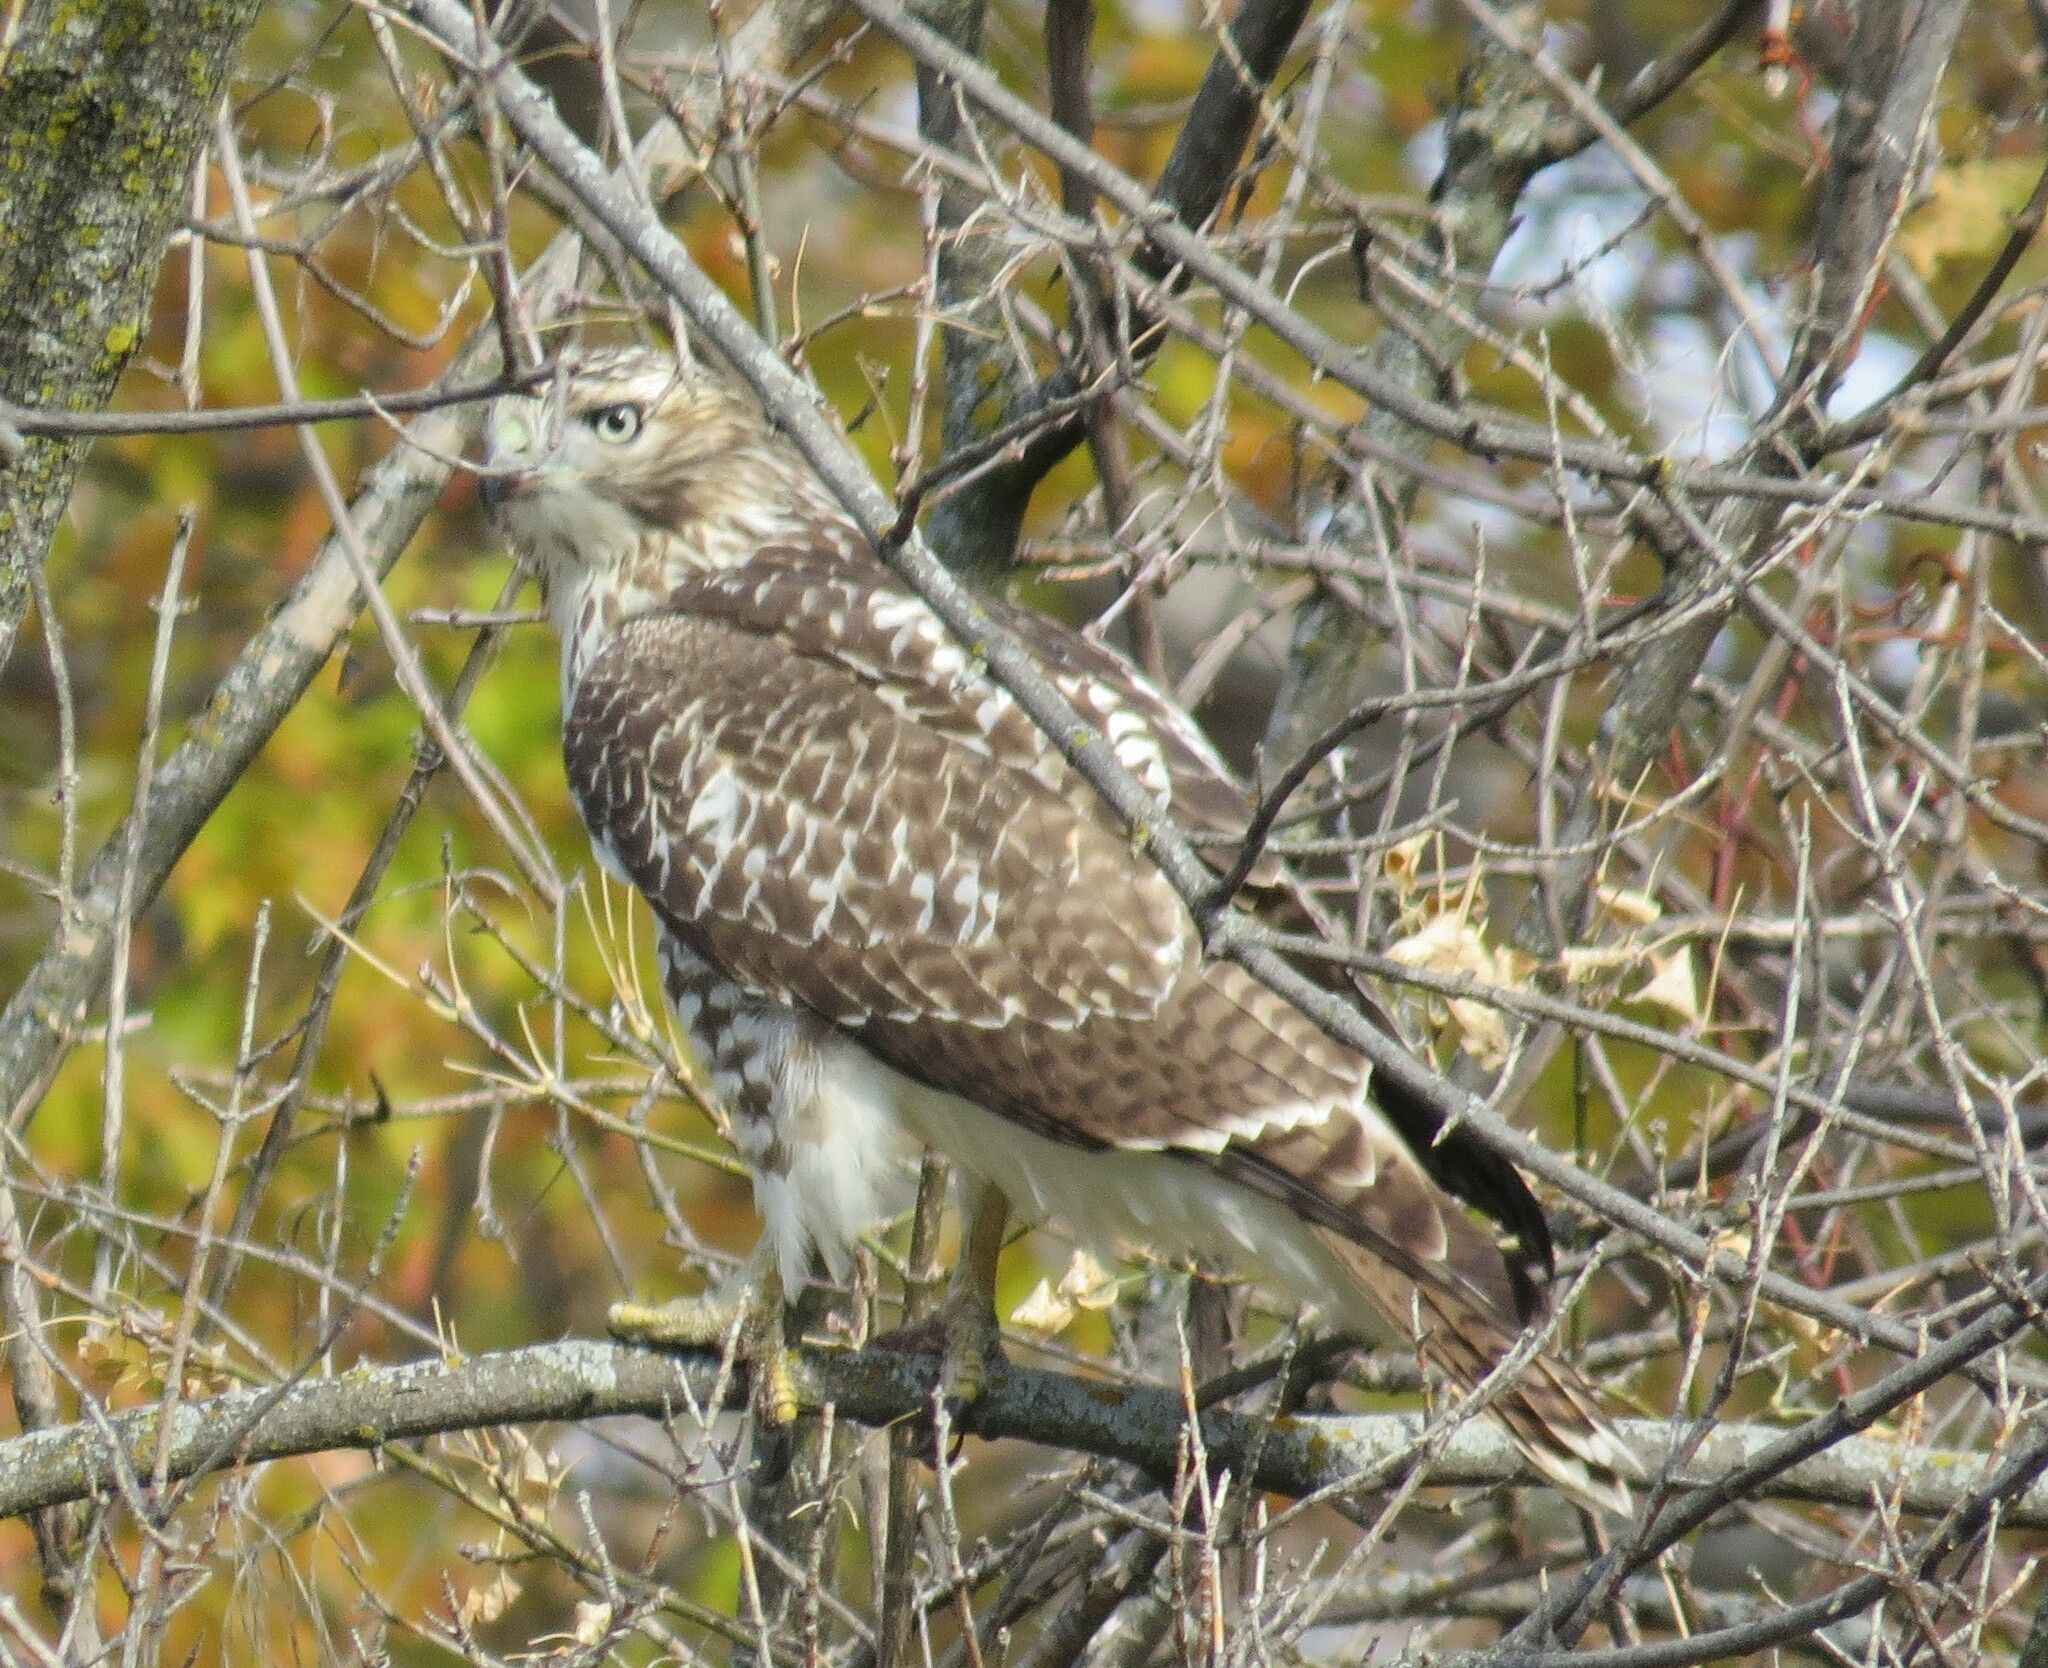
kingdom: Animalia
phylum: Chordata
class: Aves
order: Accipitriformes
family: Accipitridae
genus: Buteo
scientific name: Buteo jamaicensis
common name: Red-tailed hawk
